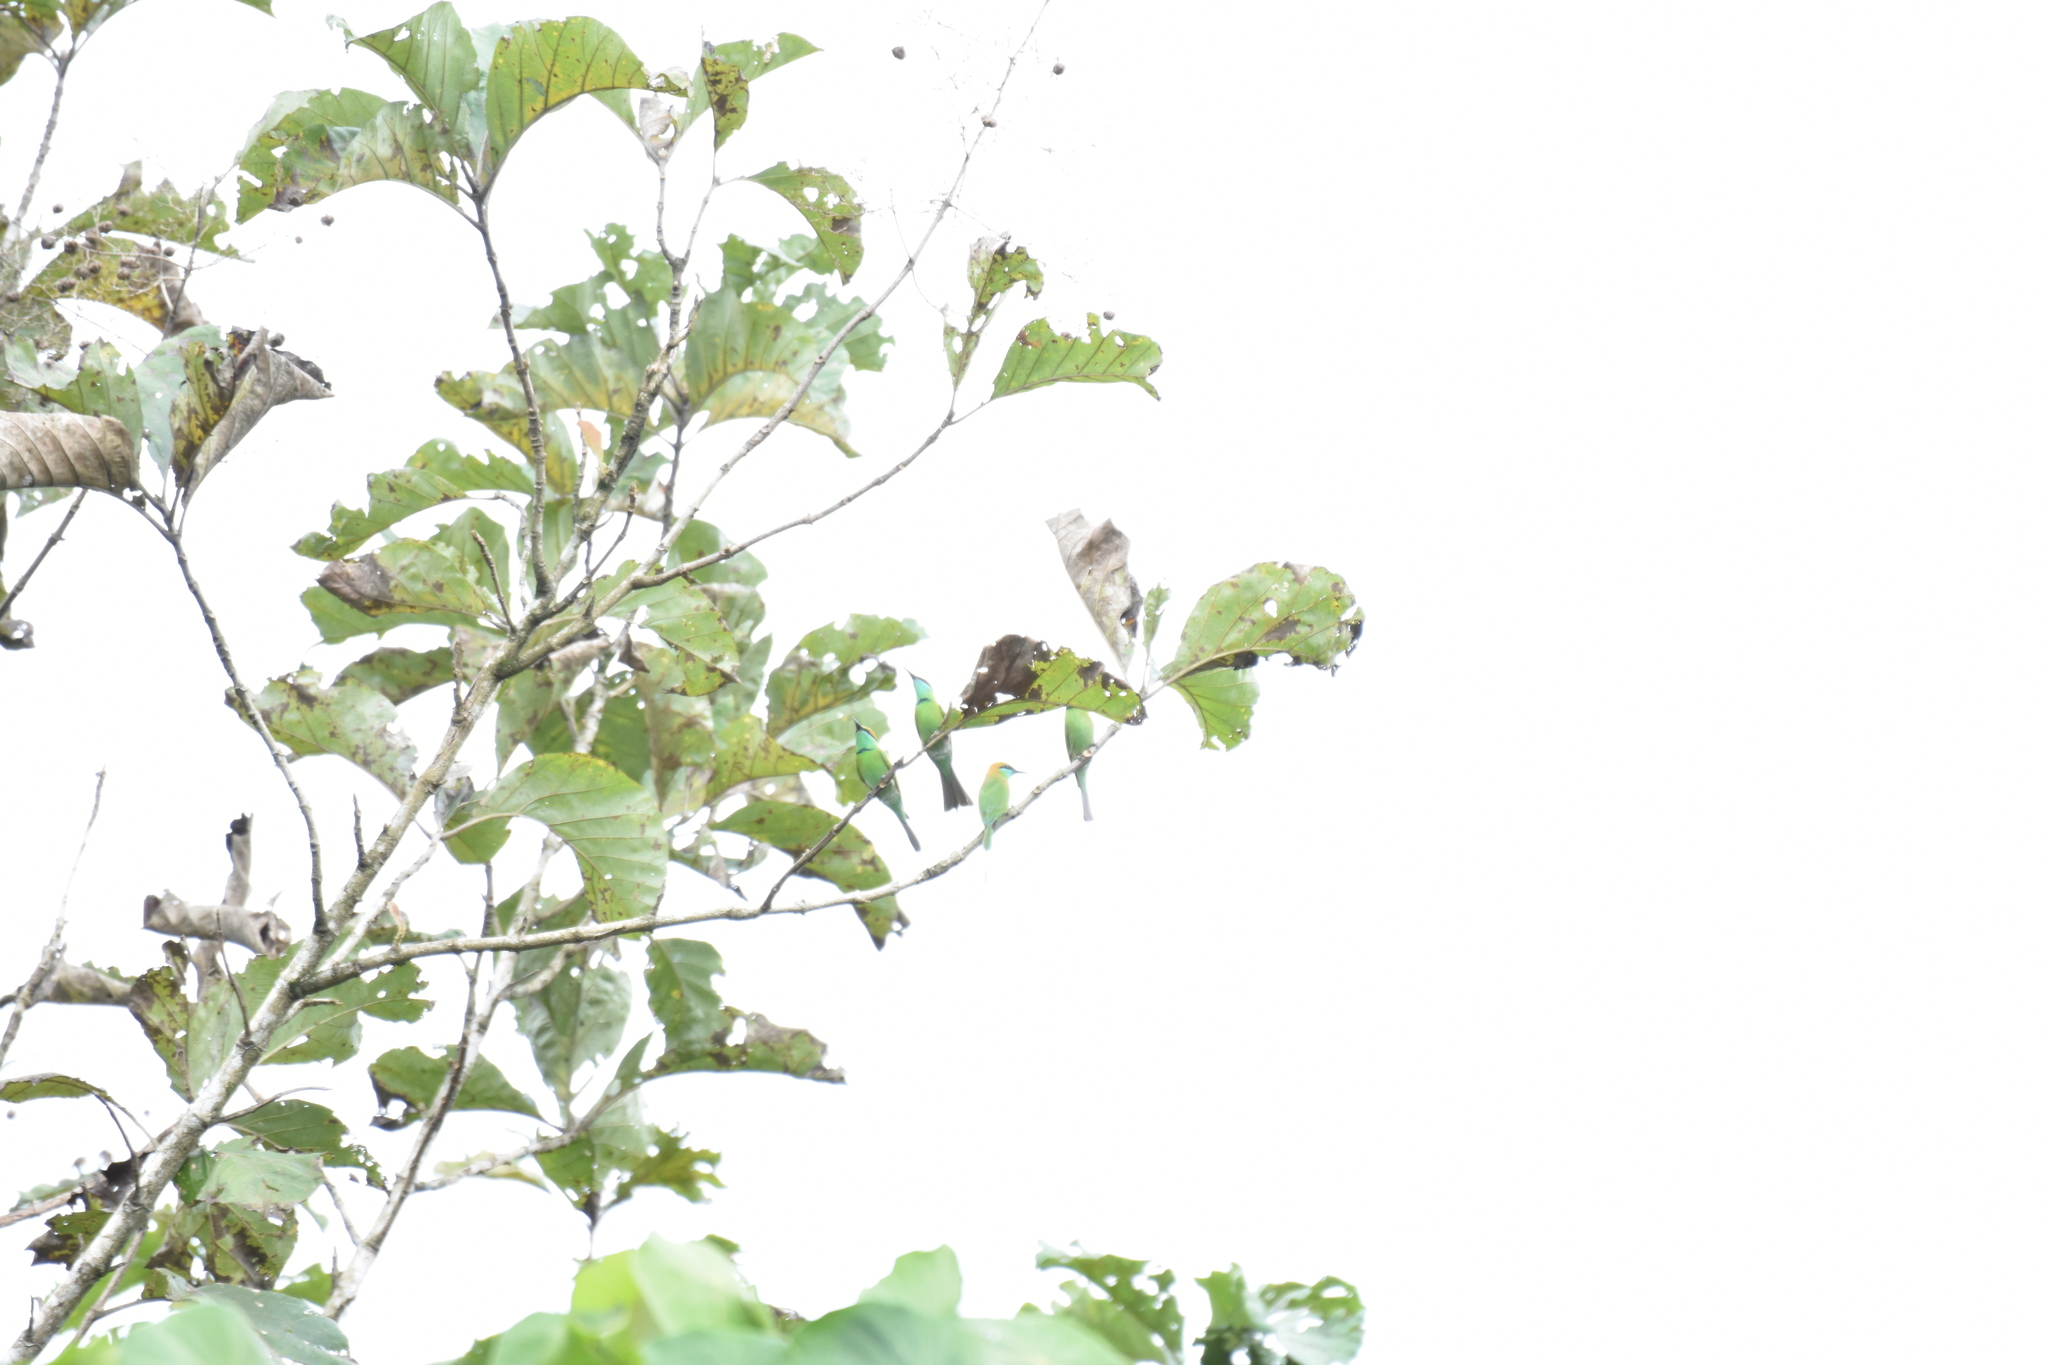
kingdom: Animalia
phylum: Chordata
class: Aves
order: Coraciiformes
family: Meropidae
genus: Merops
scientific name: Merops orientalis
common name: Green bee-eater
